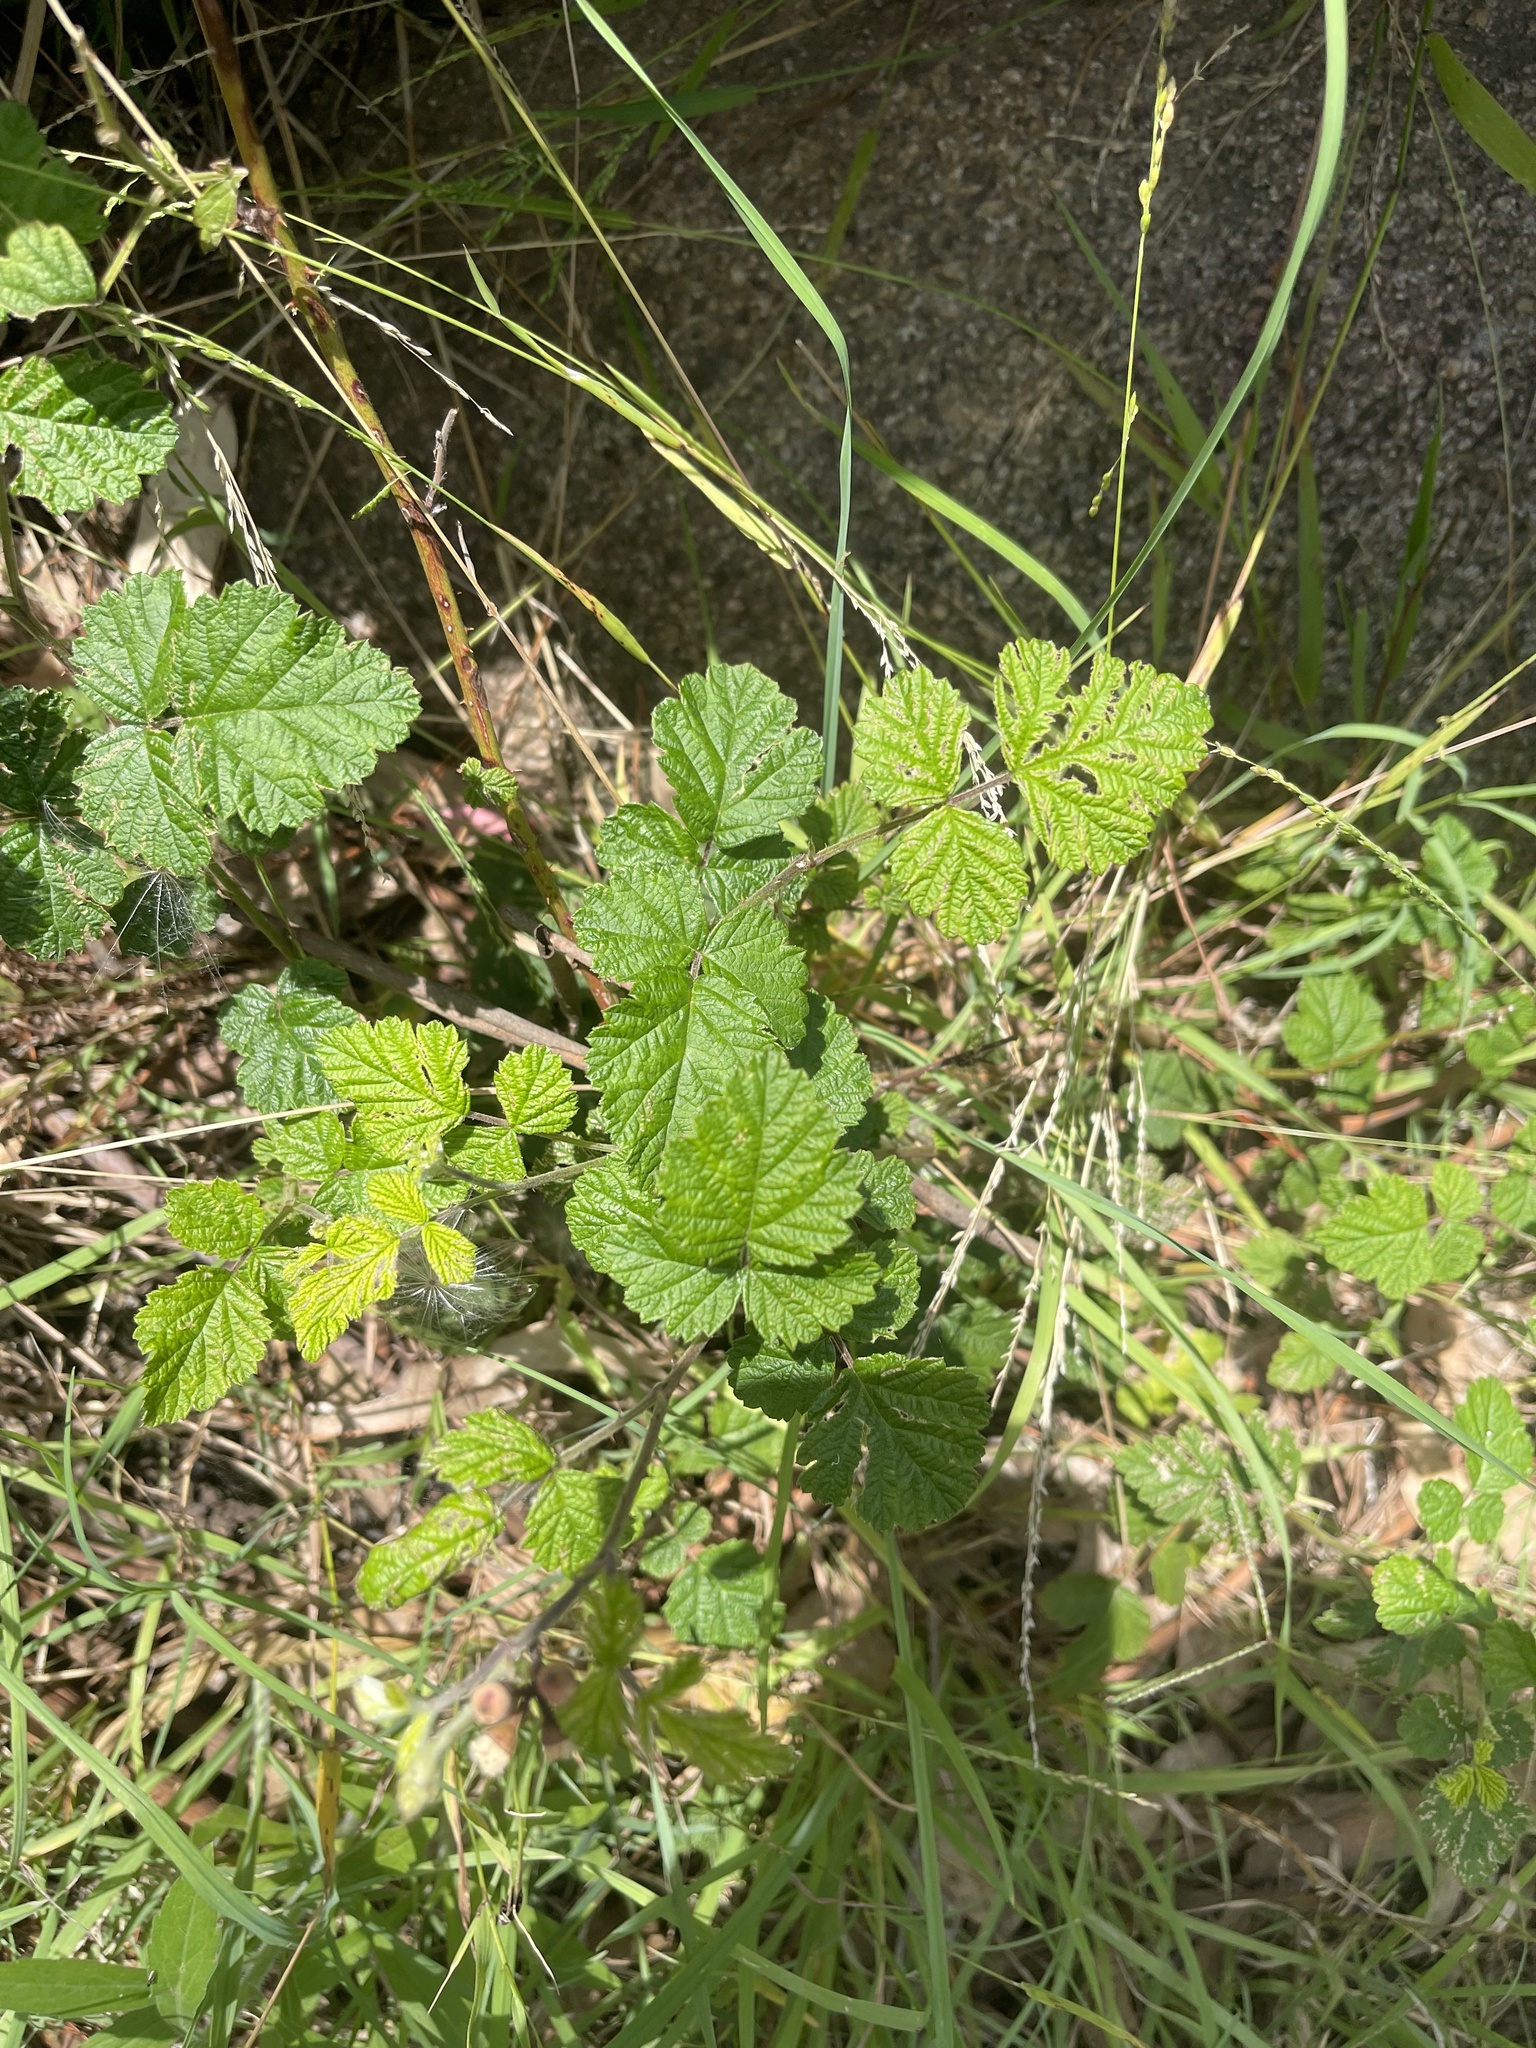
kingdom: Plantae
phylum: Tracheophyta
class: Magnoliopsida
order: Rosales
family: Rosaceae
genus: Rubus
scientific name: Rubus parvifolius
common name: Threeleaf blackberry
